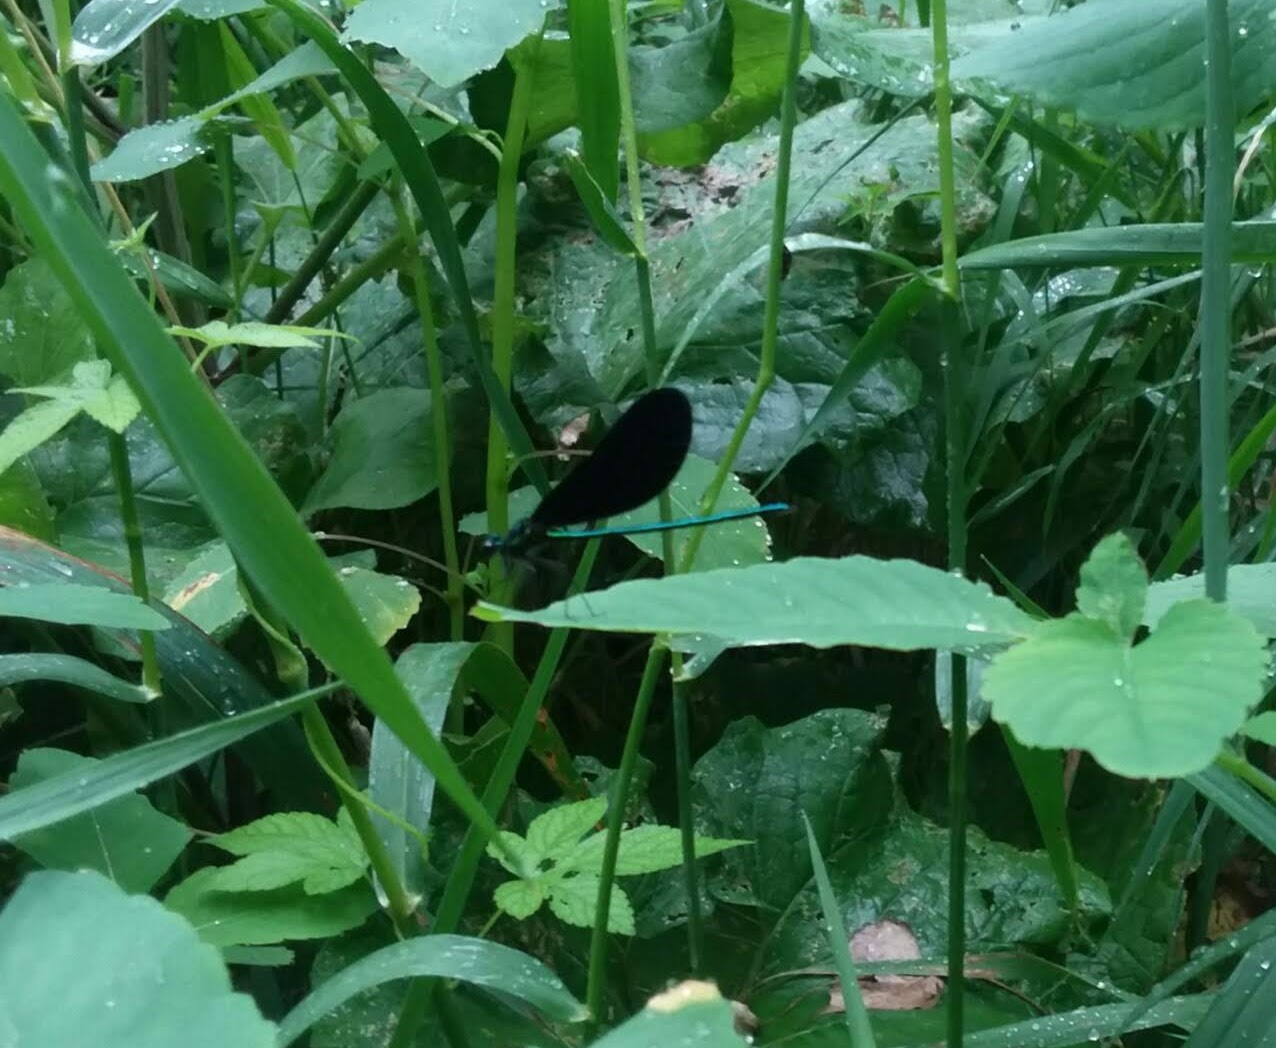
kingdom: Animalia
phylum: Arthropoda
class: Insecta
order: Odonata
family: Calopterygidae
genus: Calopteryx
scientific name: Calopteryx maculata
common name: Ebony jewelwing
